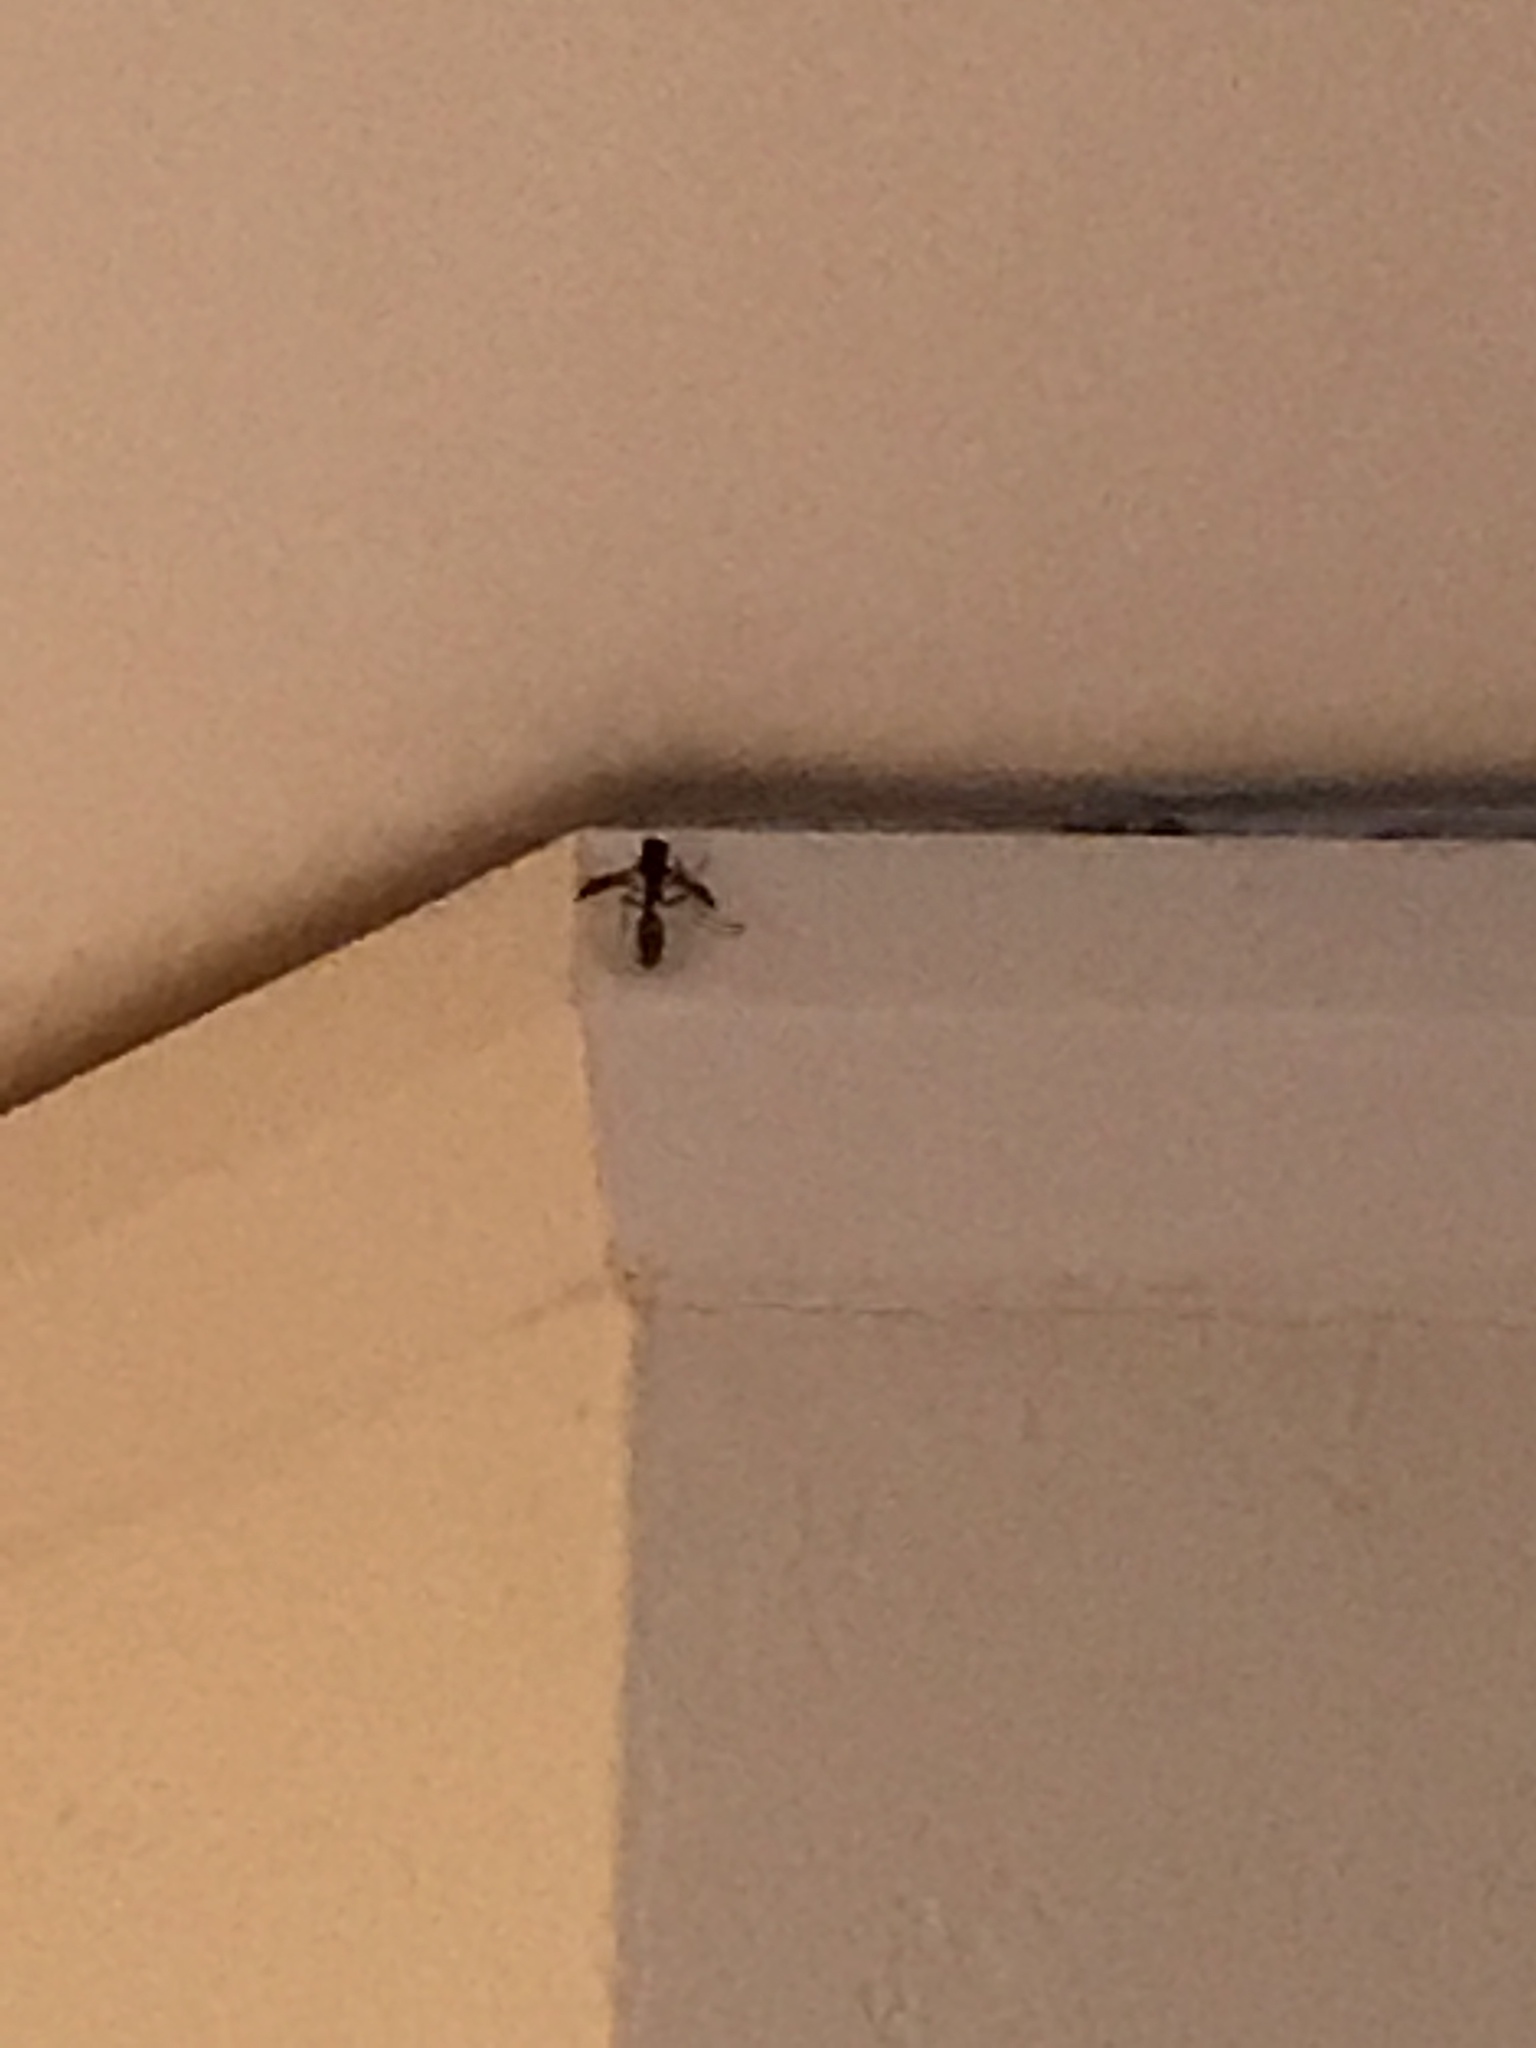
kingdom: Animalia
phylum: Arthropoda
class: Insecta
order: Hymenoptera
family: Vespidae
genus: Mischocyttarus
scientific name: Mischocyttarus flavitarsis
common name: Wasp
